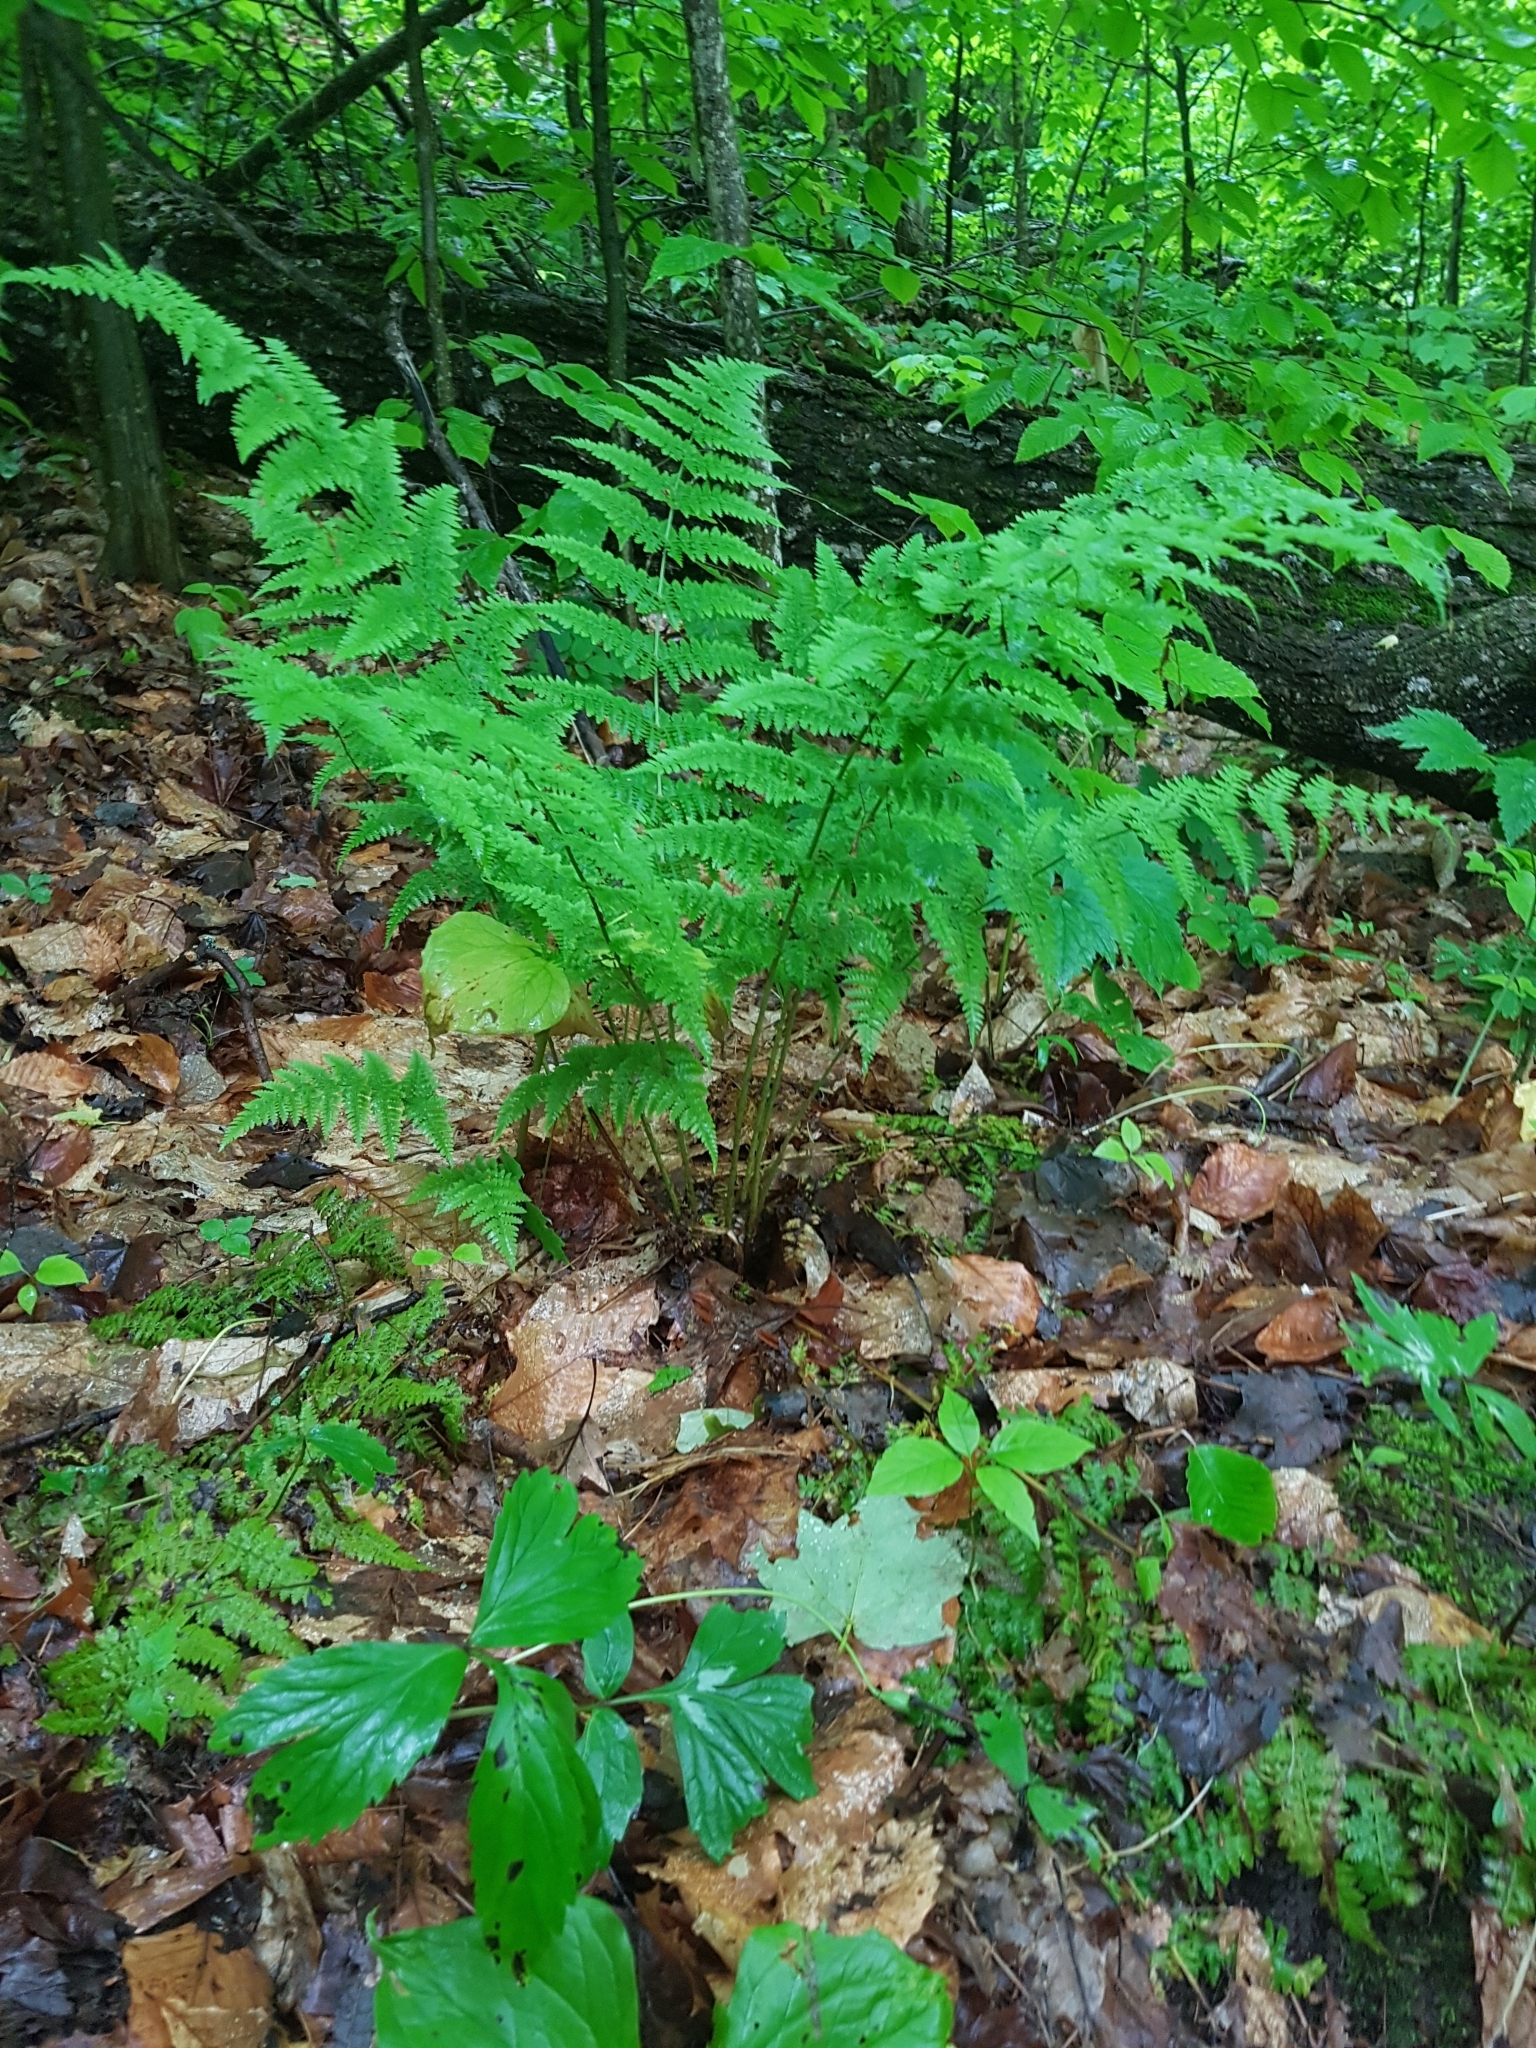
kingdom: Plantae
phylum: Tracheophyta
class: Polypodiopsida
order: Polypodiales
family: Athyriaceae
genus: Athyrium
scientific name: Athyrium angustum
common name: Northern lady fern
